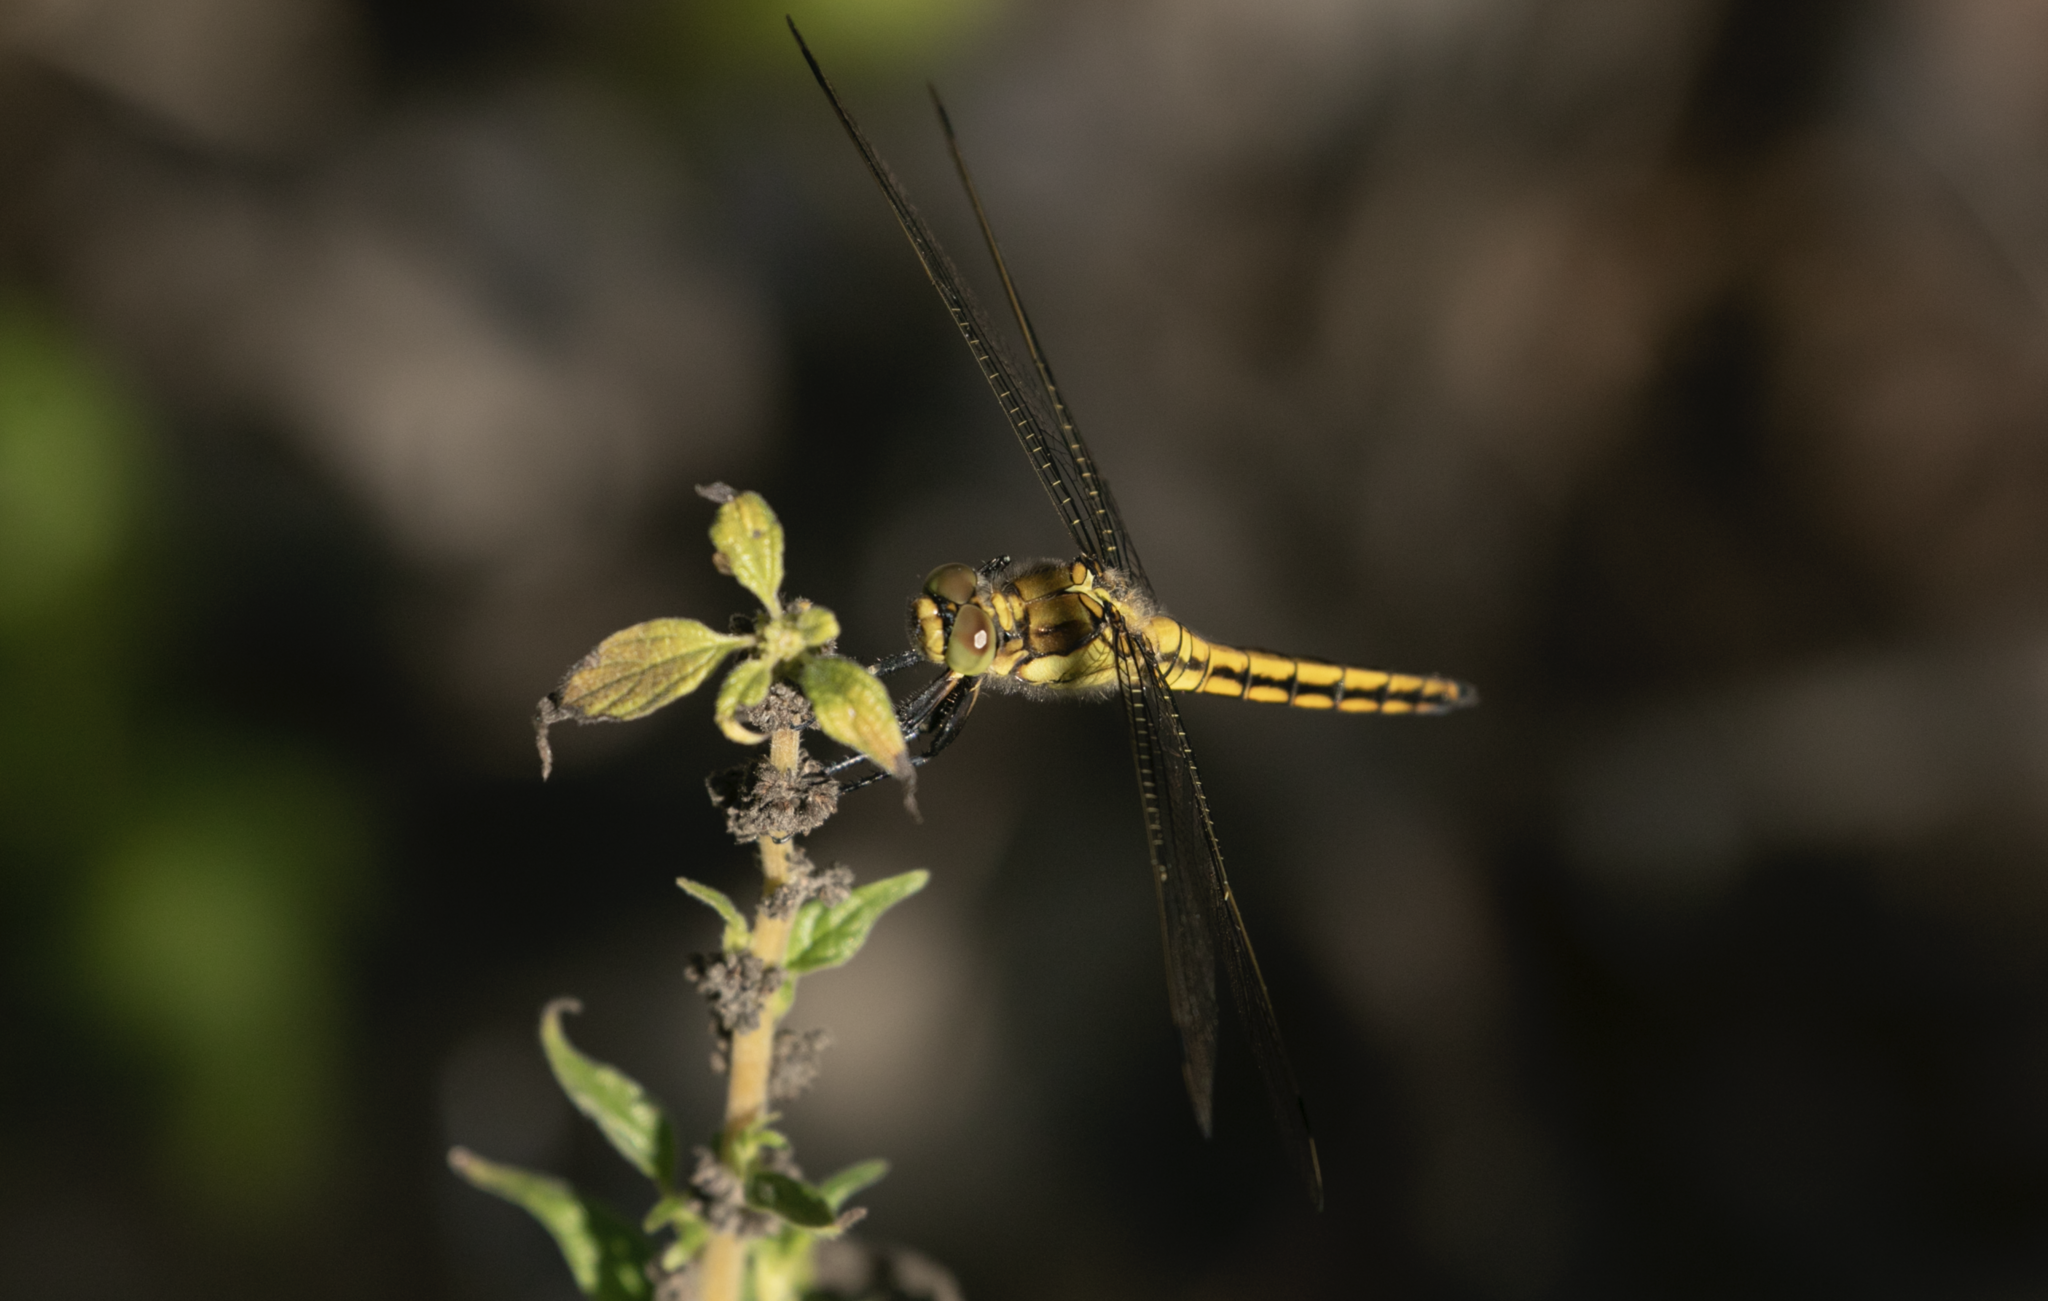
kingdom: Animalia
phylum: Arthropoda
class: Insecta
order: Odonata
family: Libellulidae
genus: Orthetrum
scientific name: Orthetrum cancellatum
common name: Black-tailed skimmer
